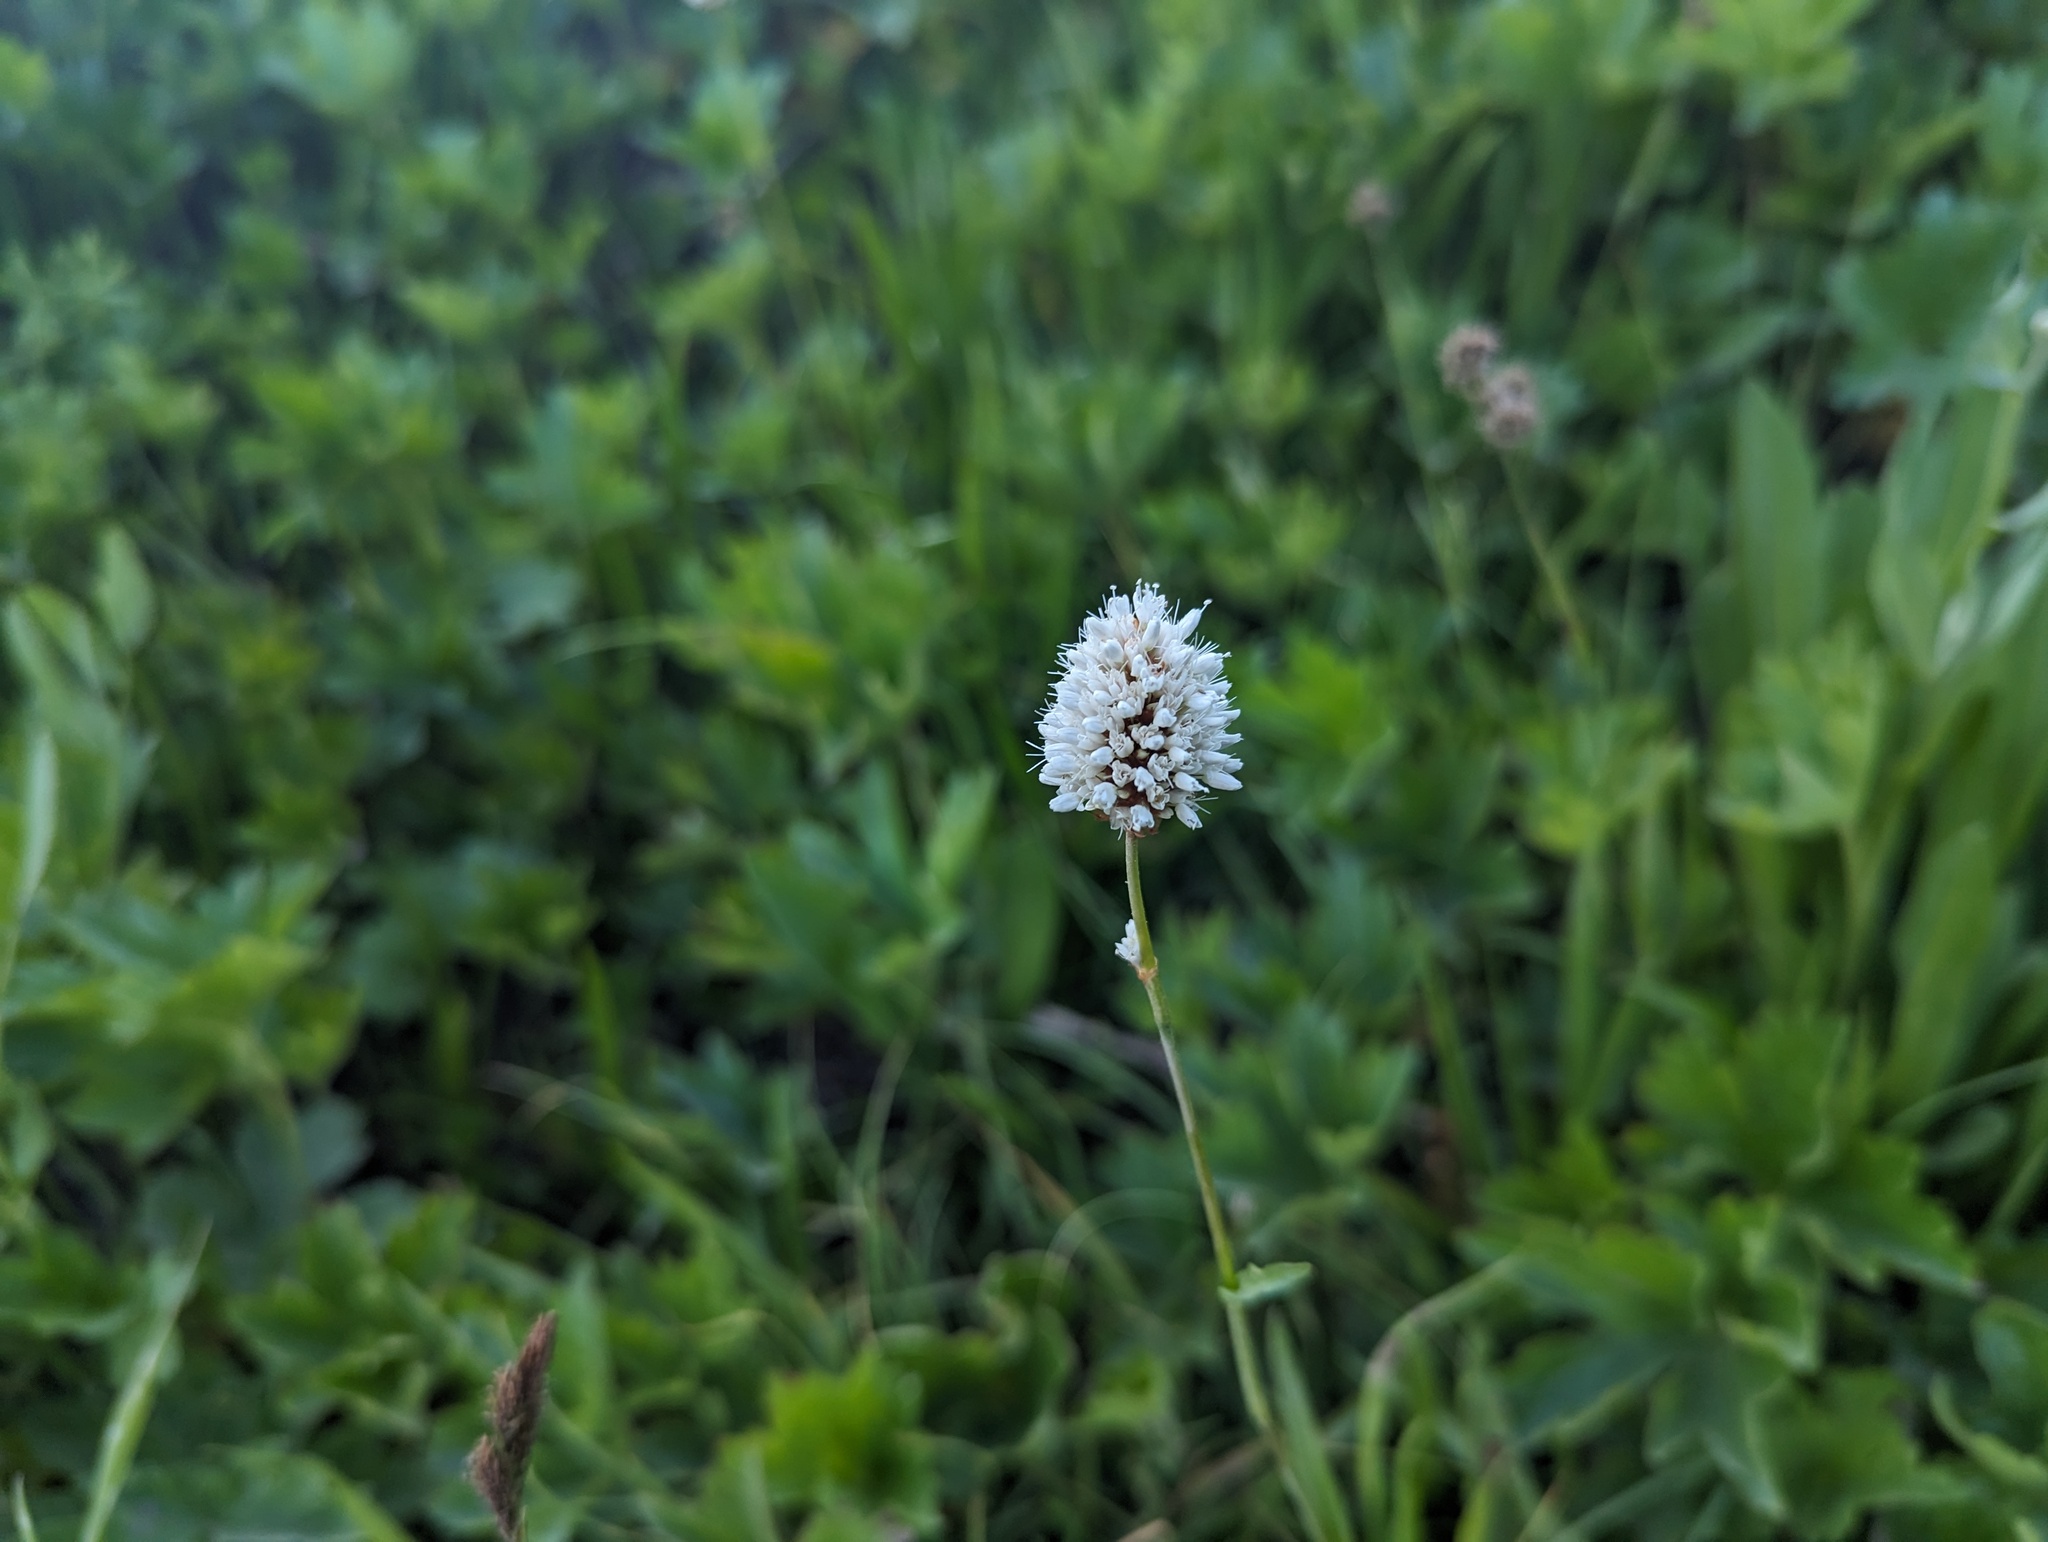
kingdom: Plantae
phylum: Tracheophyta
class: Magnoliopsida
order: Caryophyllales
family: Polygonaceae
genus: Bistorta
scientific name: Bistorta bistortoides
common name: American bistort
